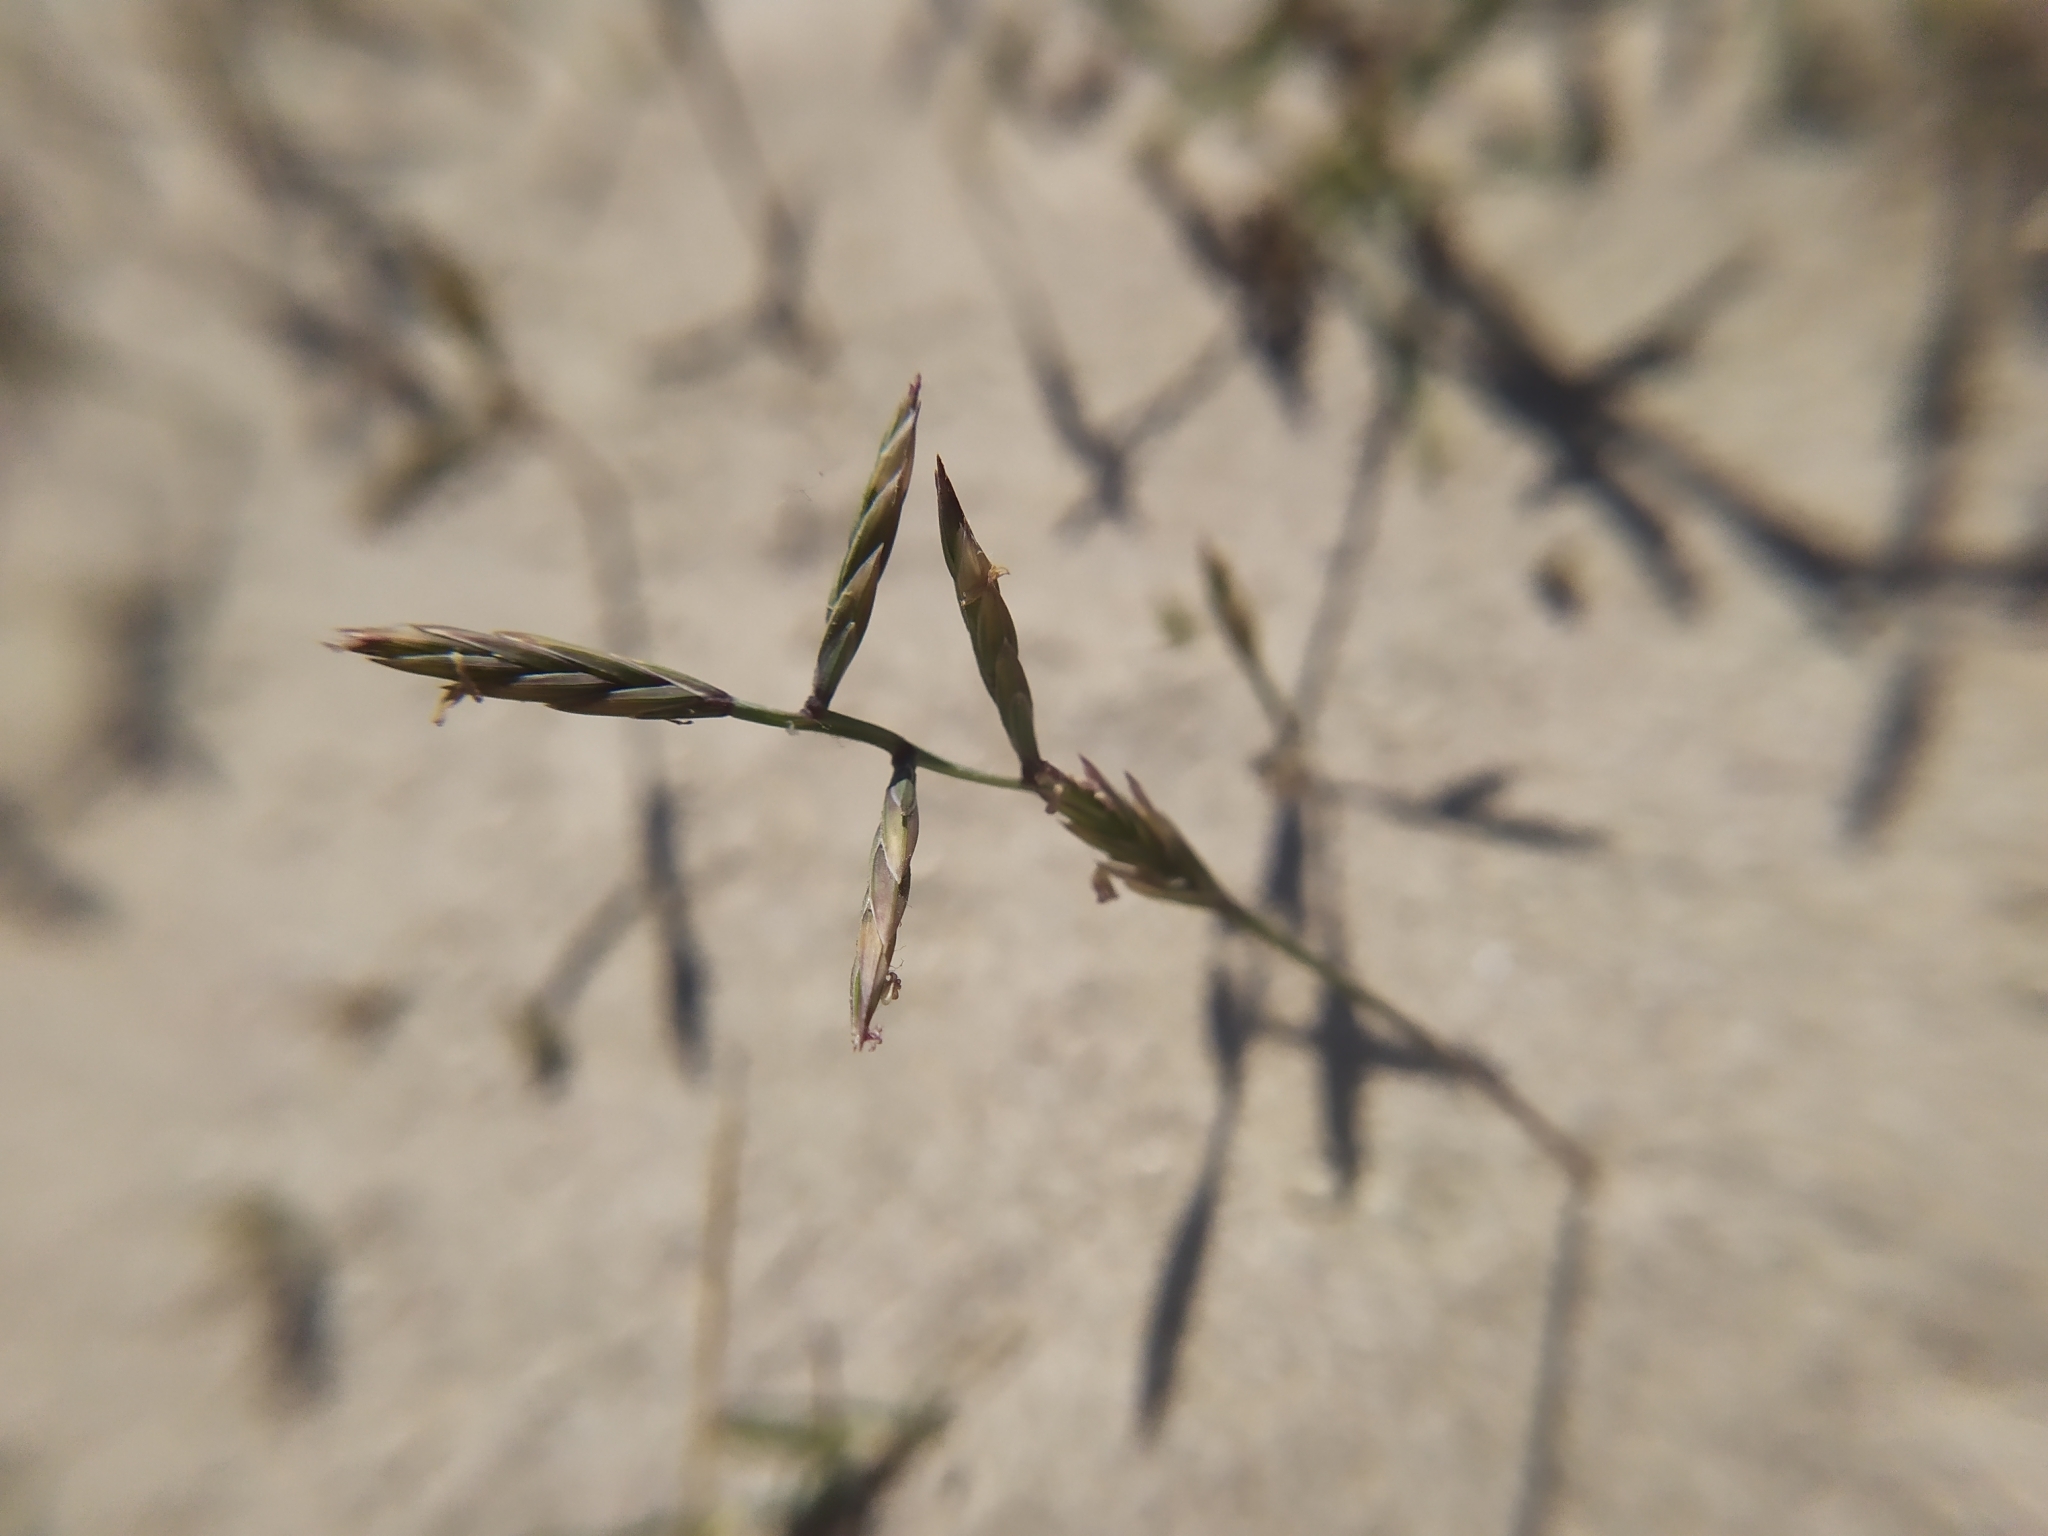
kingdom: Plantae
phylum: Tracheophyta
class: Liliopsida
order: Poales
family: Poaceae
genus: Cutandia
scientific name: Cutandia maritima
